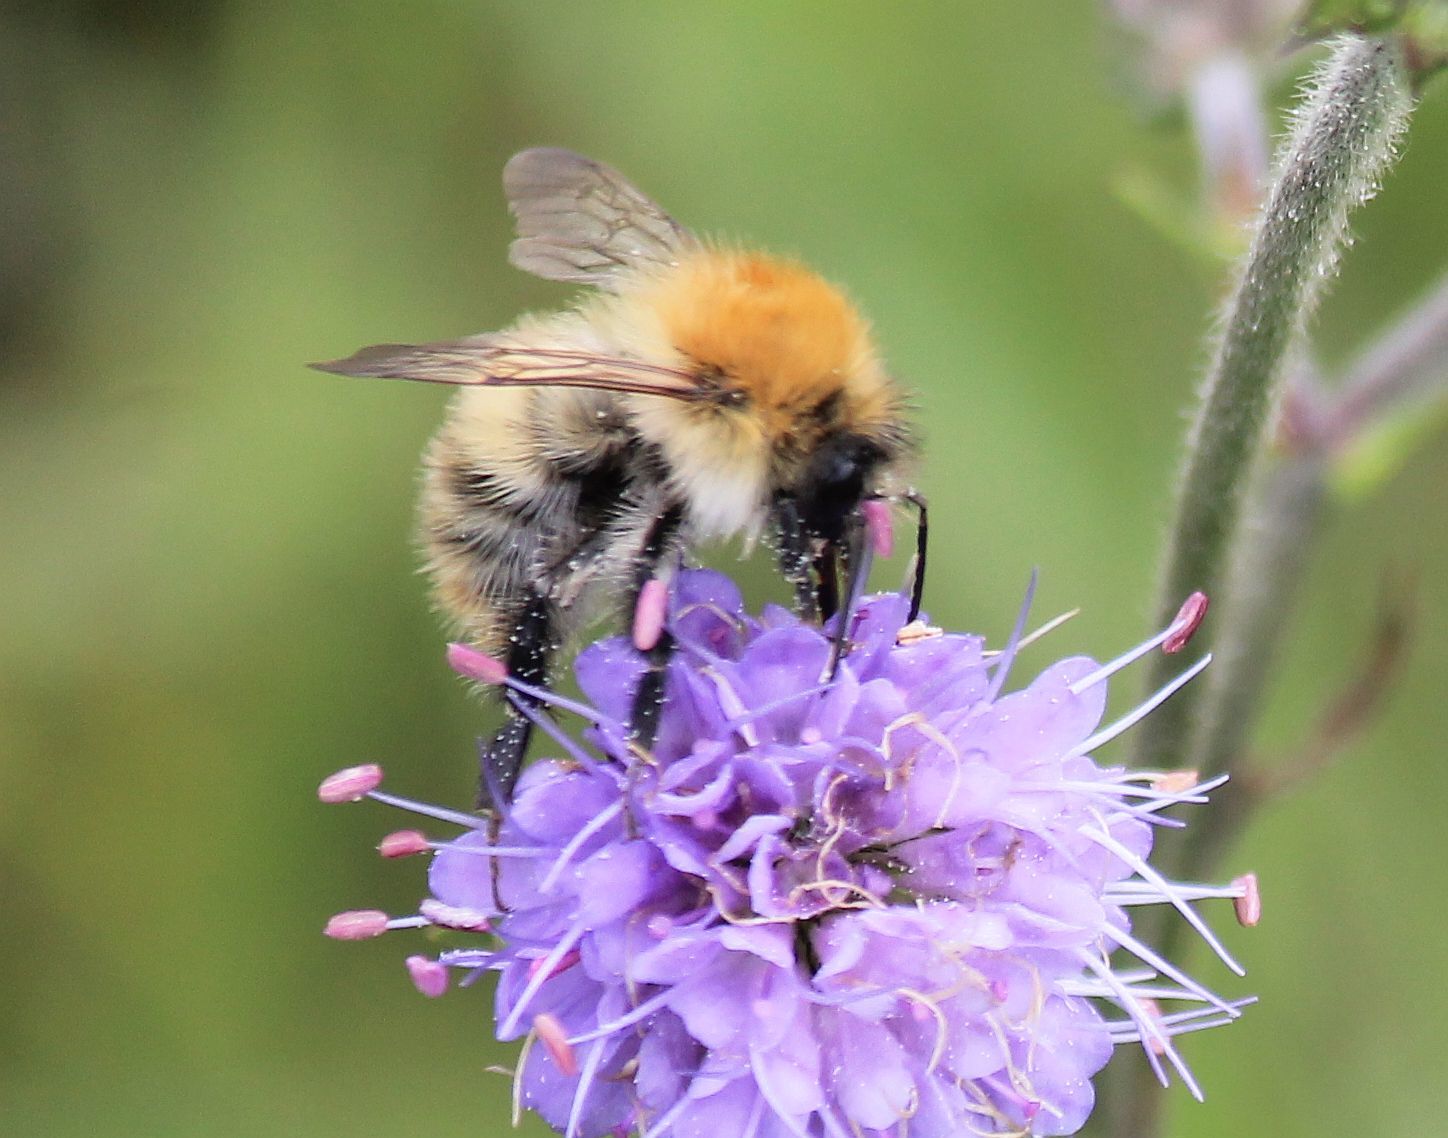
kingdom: Animalia
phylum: Arthropoda
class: Insecta
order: Hymenoptera
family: Apidae
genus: Bombus
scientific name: Bombus pascuorum
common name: Common carder bee
